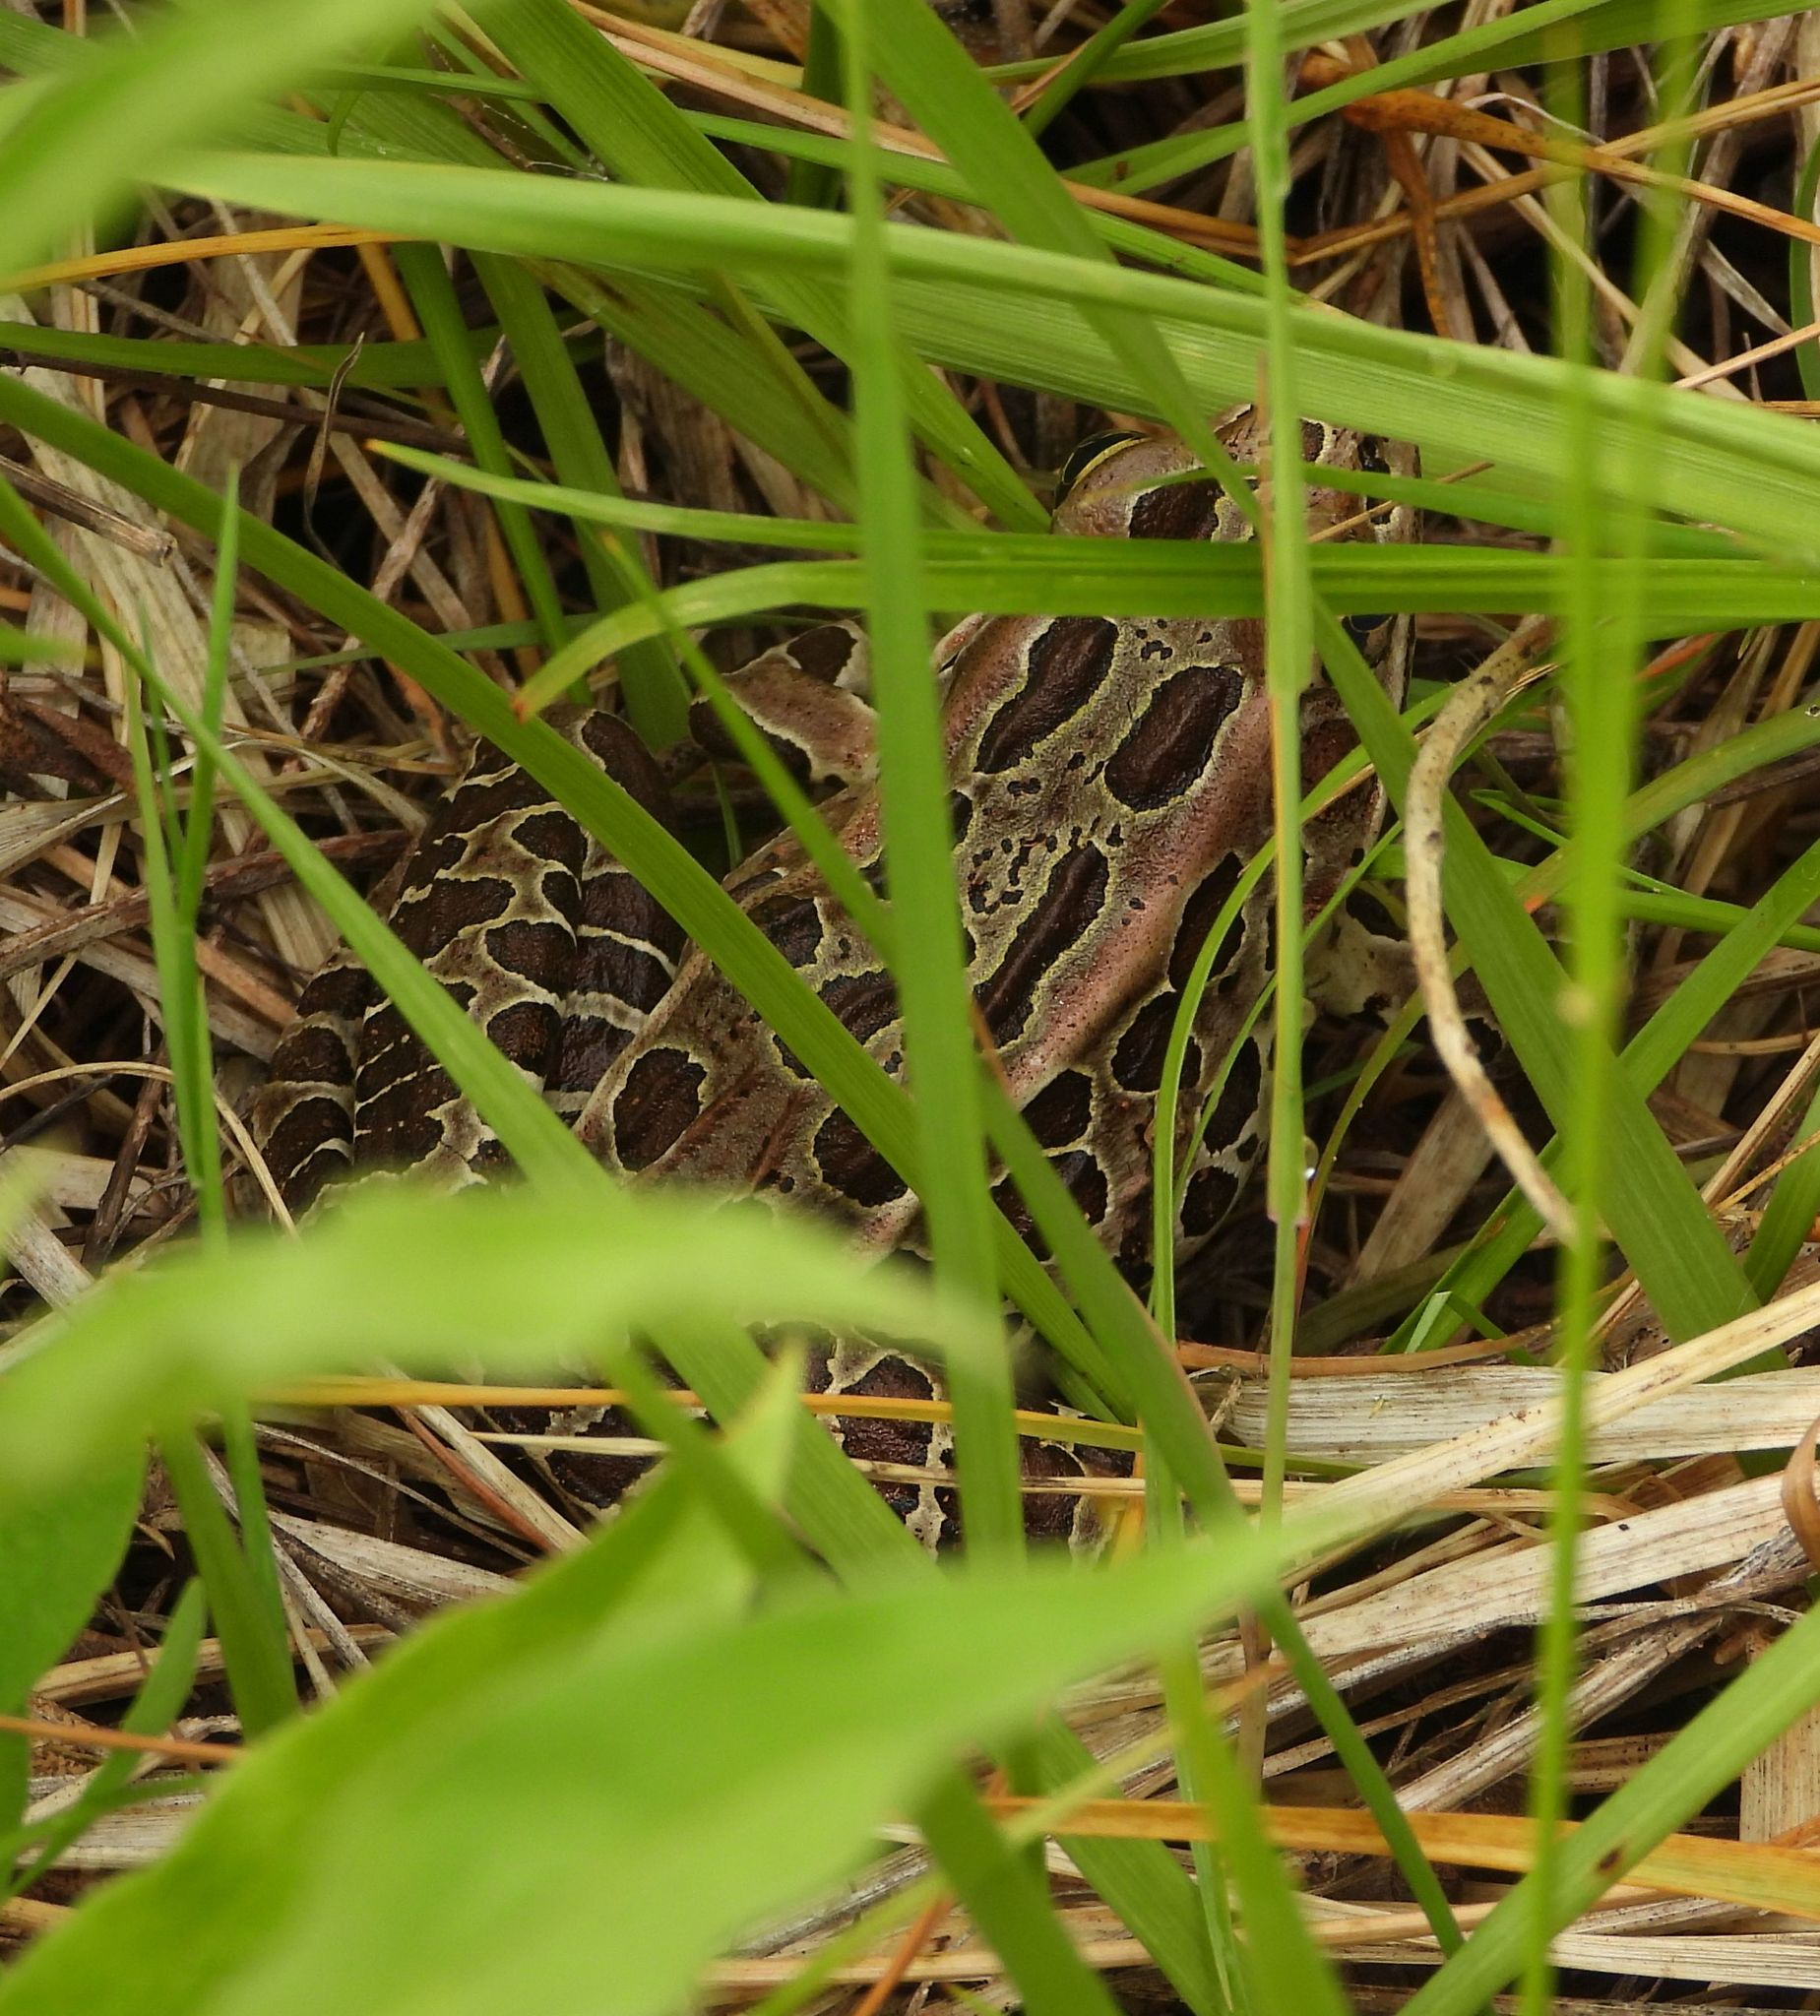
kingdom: Animalia
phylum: Chordata
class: Amphibia
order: Anura
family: Ranidae
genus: Lithobates
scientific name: Lithobates pipiens
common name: Northern leopard frog
